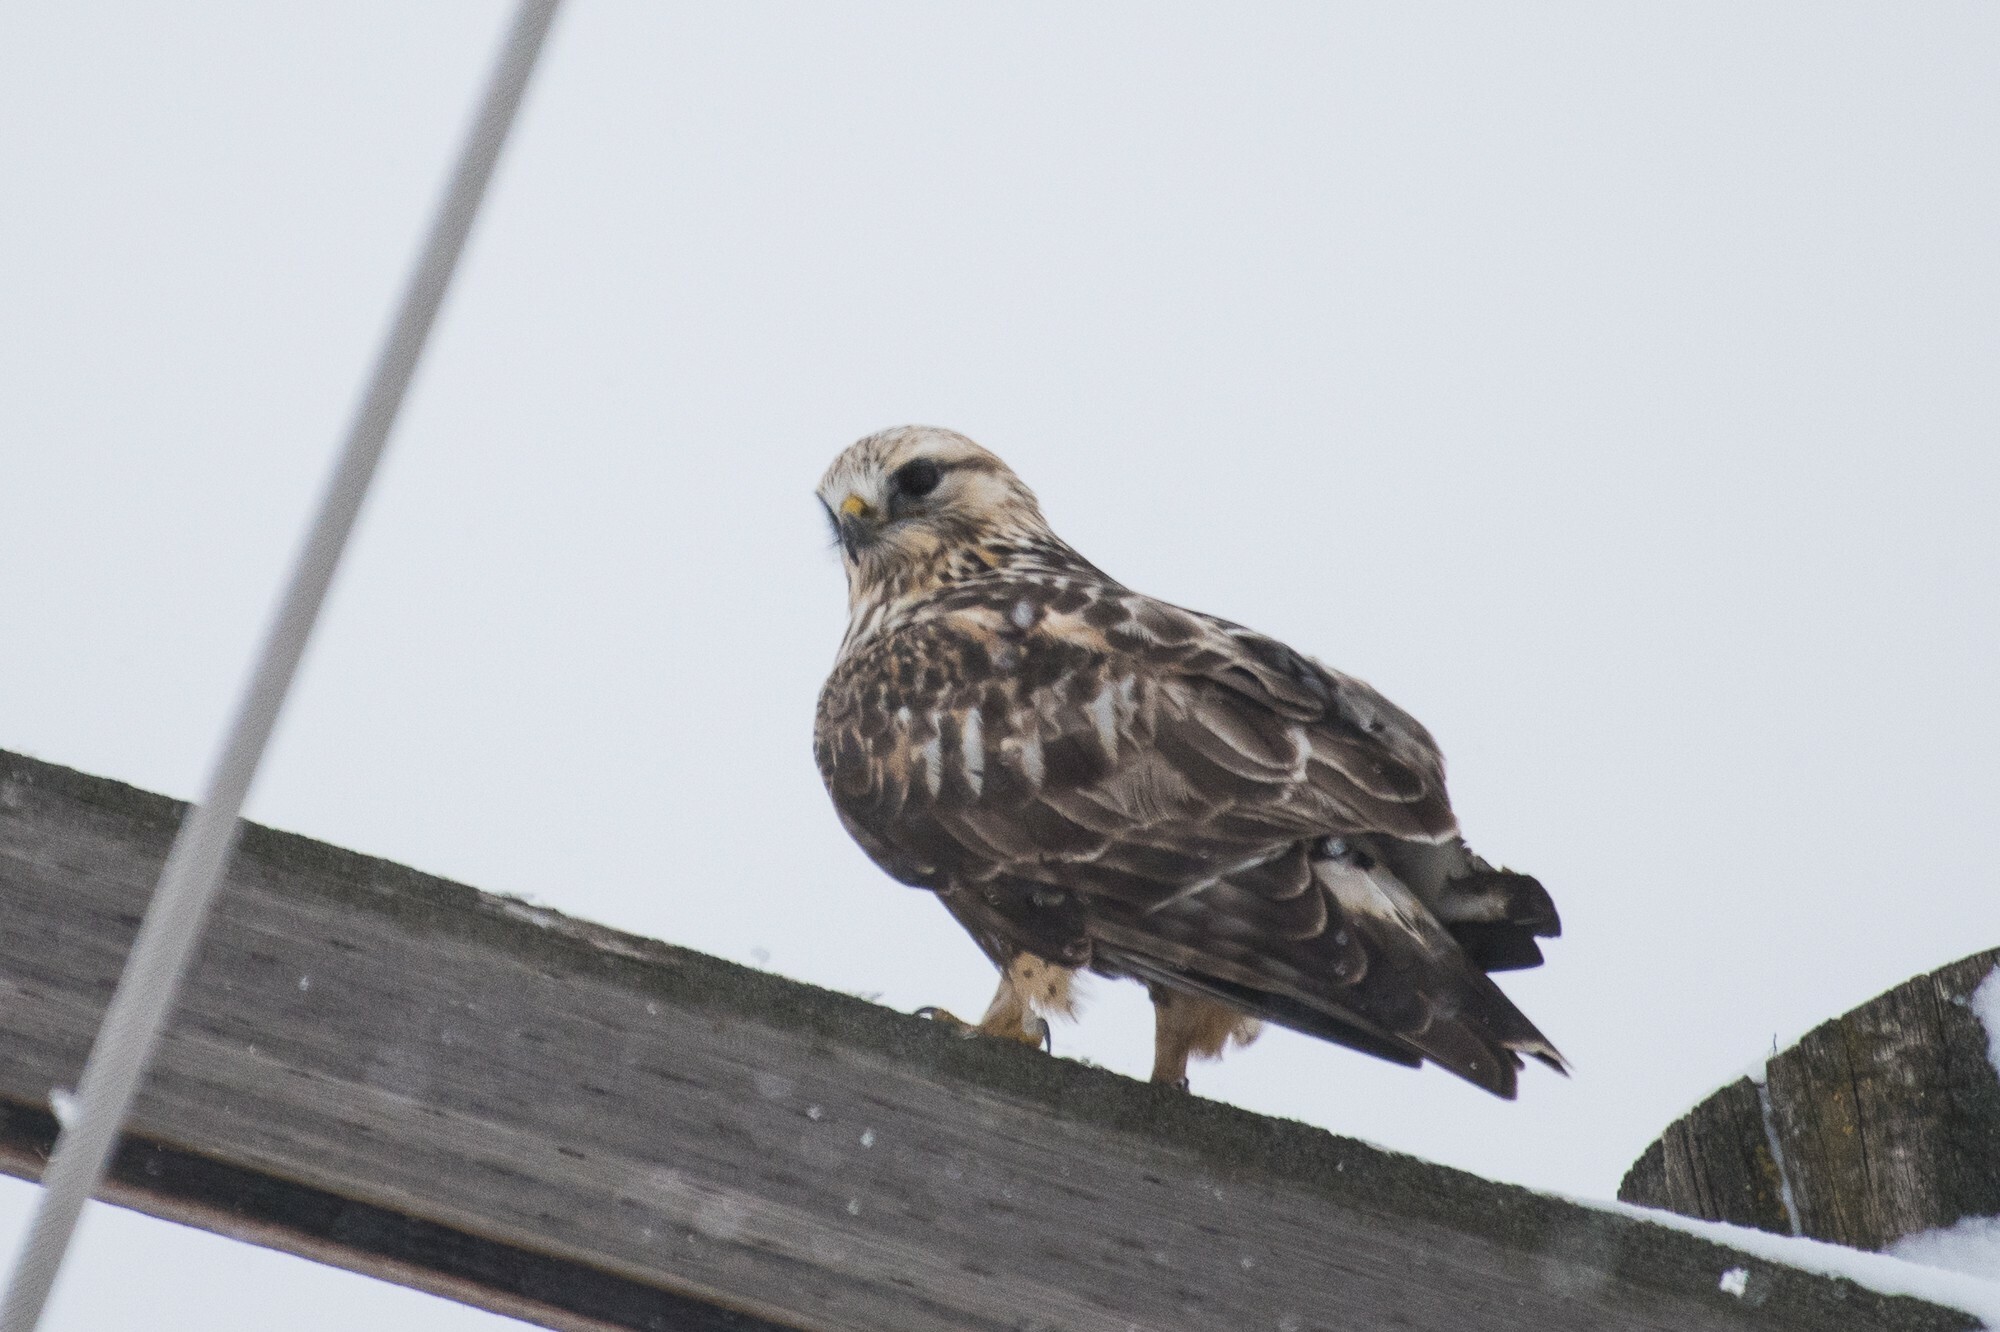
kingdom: Animalia
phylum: Chordata
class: Aves
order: Accipitriformes
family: Accipitridae
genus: Buteo
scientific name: Buteo lagopus
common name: Rough-legged buzzard
